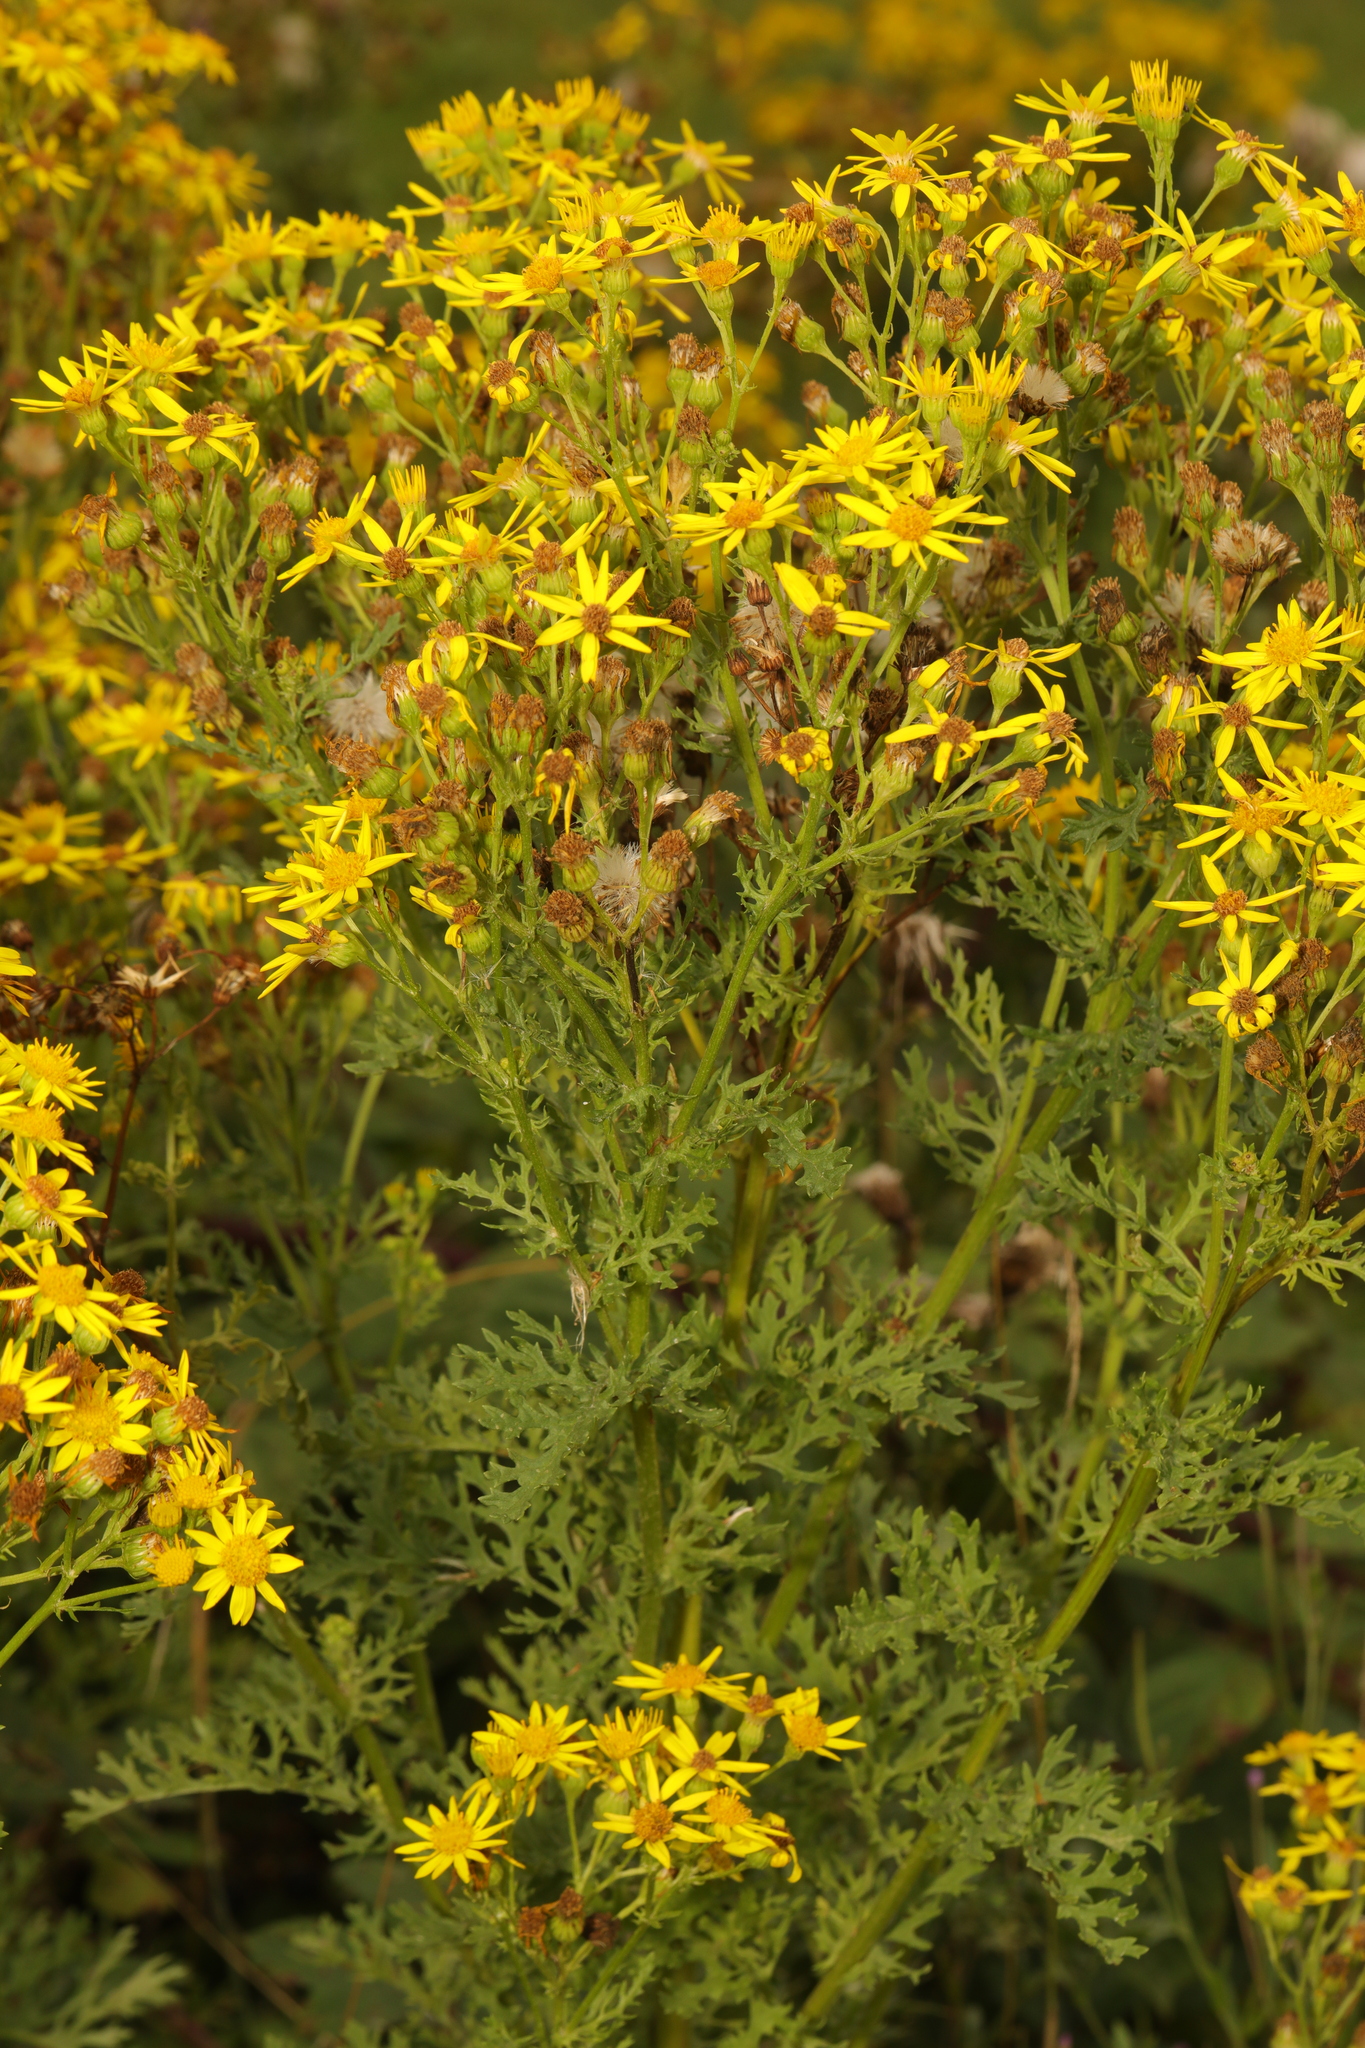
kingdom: Plantae
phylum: Tracheophyta
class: Magnoliopsida
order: Asterales
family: Asteraceae
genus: Jacobaea
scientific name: Jacobaea vulgaris
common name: Stinking willie
